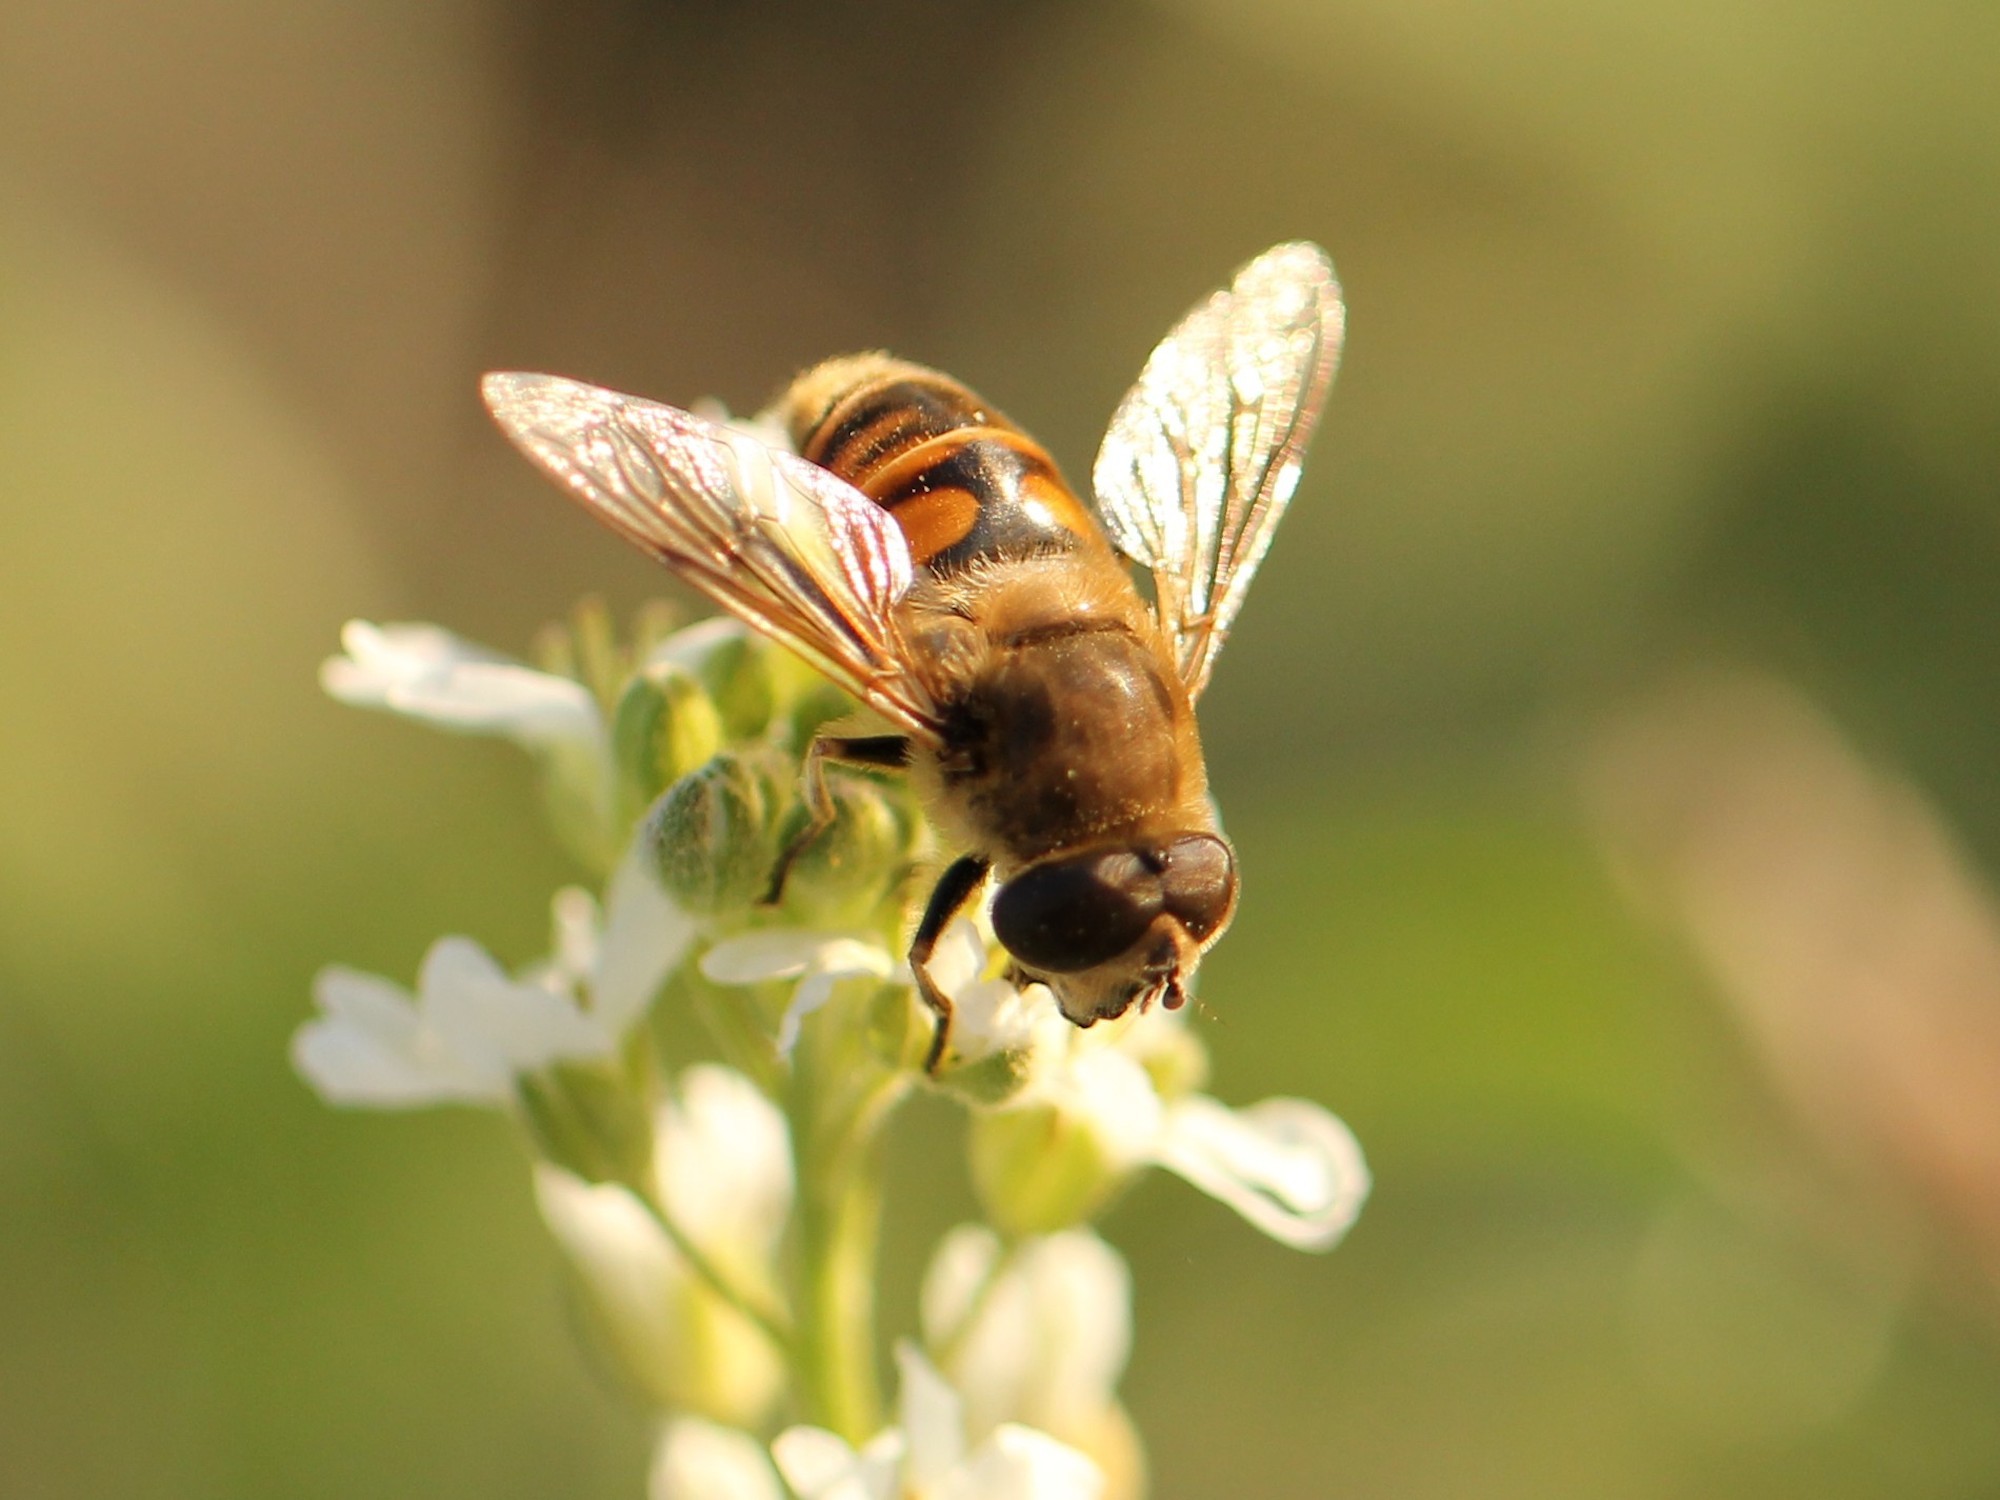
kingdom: Animalia
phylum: Arthropoda
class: Insecta
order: Diptera
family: Syrphidae
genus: Eristalis
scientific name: Eristalis tenax
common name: Drone fly
